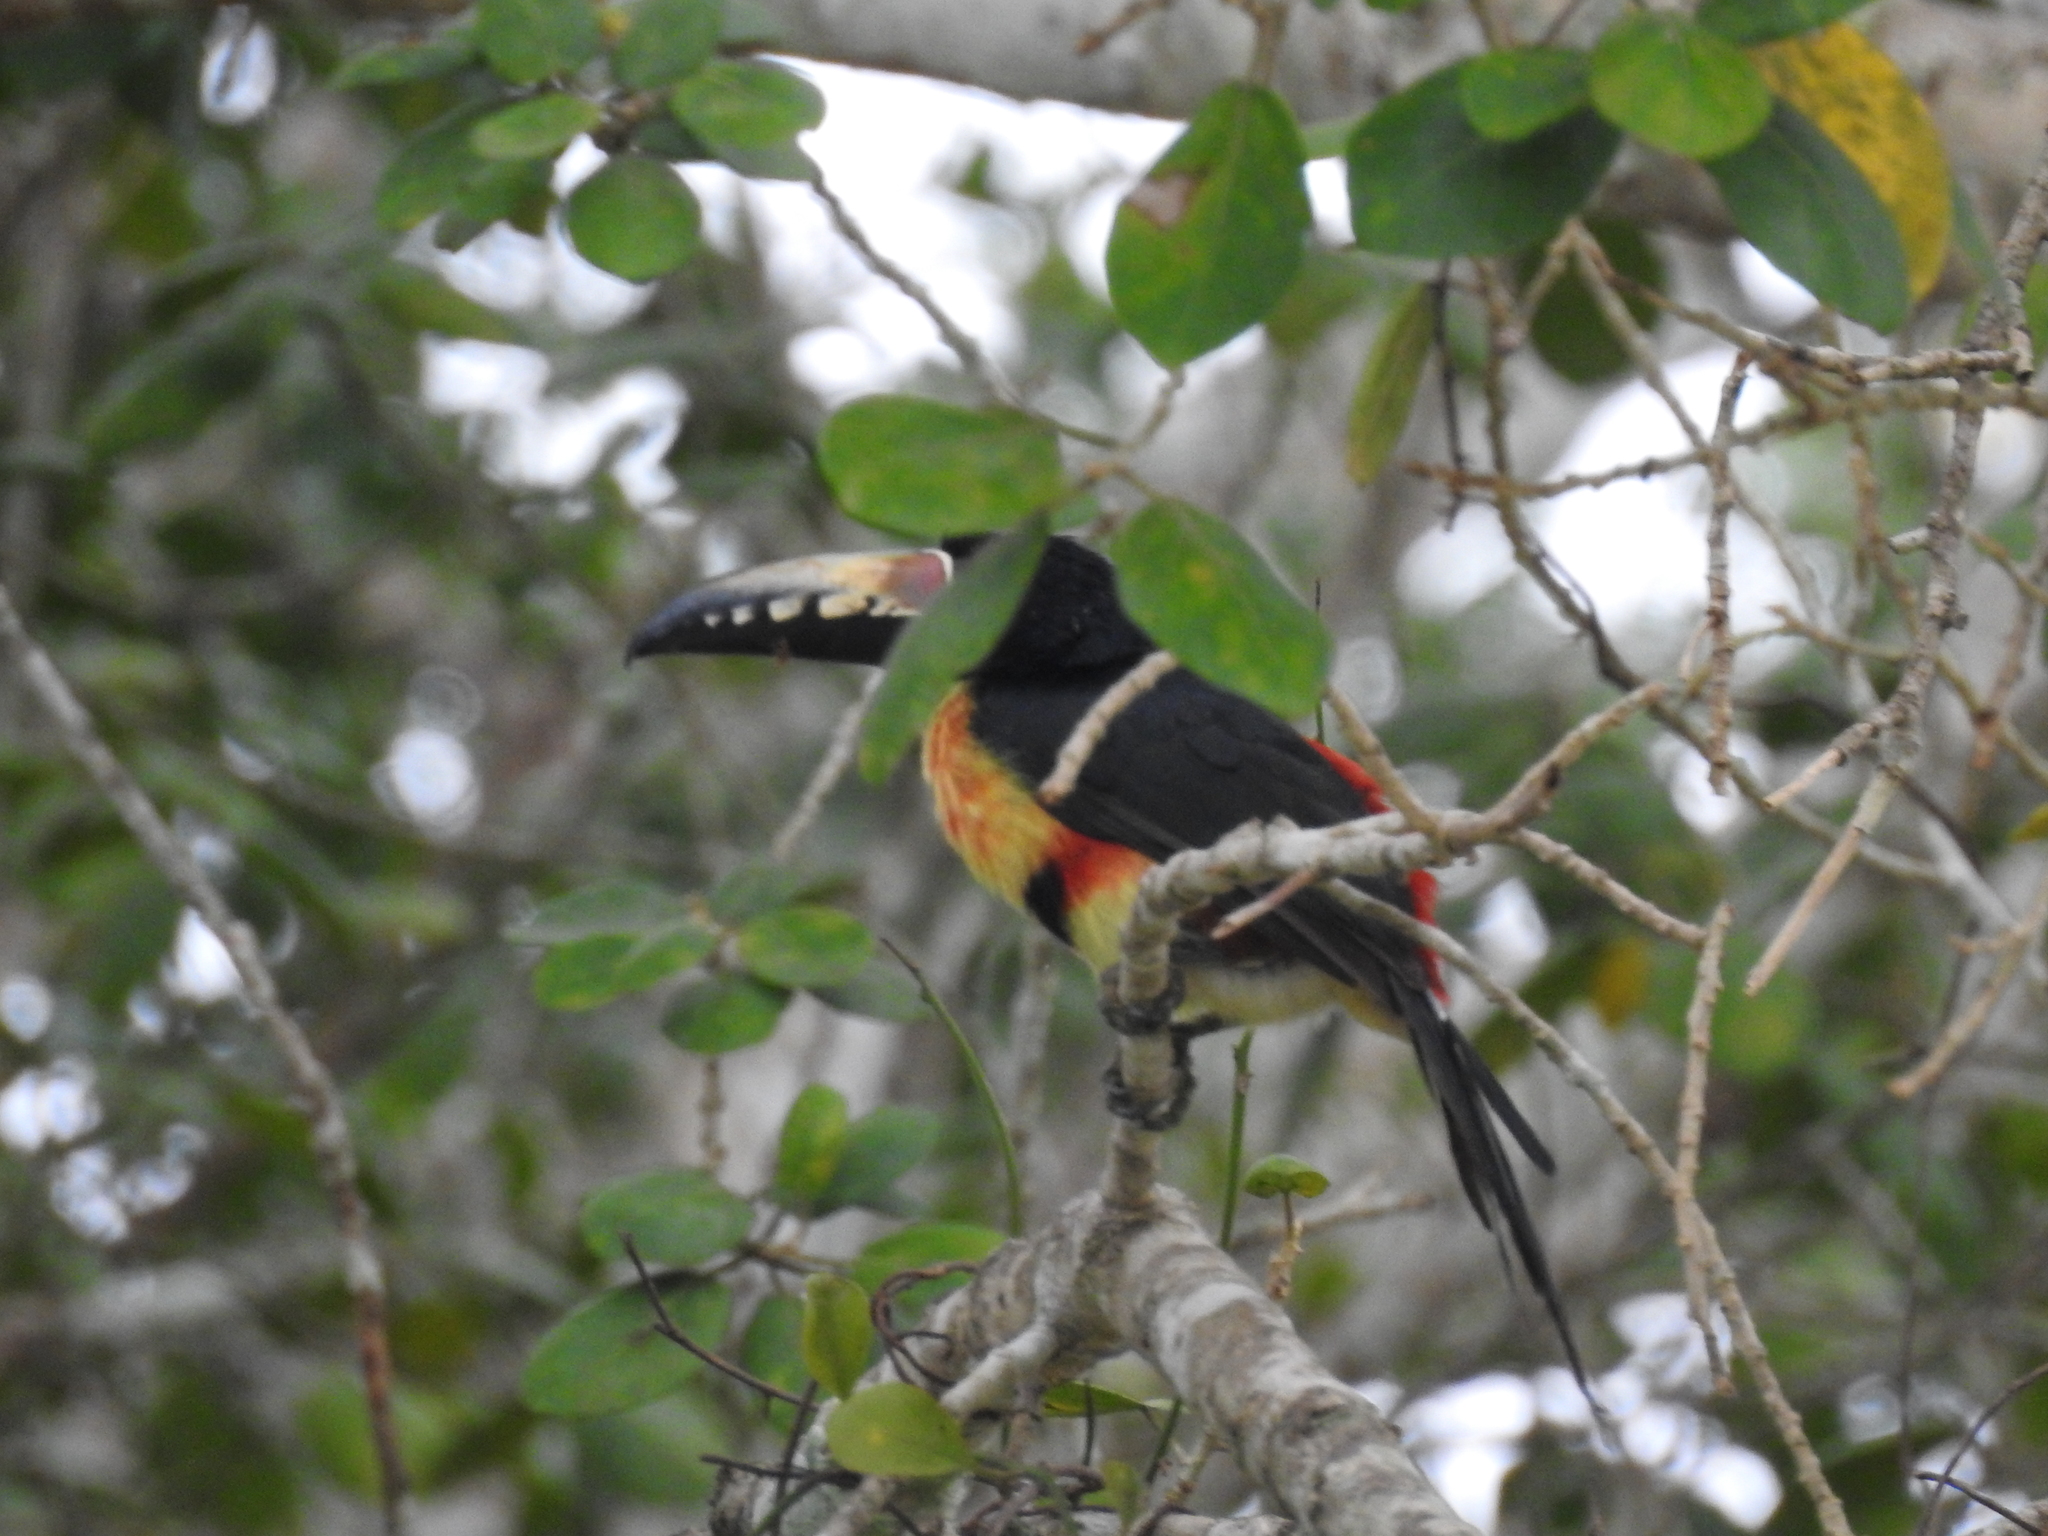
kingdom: Animalia
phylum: Chordata
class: Aves
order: Piciformes
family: Ramphastidae
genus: Pteroglossus
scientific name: Pteroglossus torquatus
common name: Collared aracari
